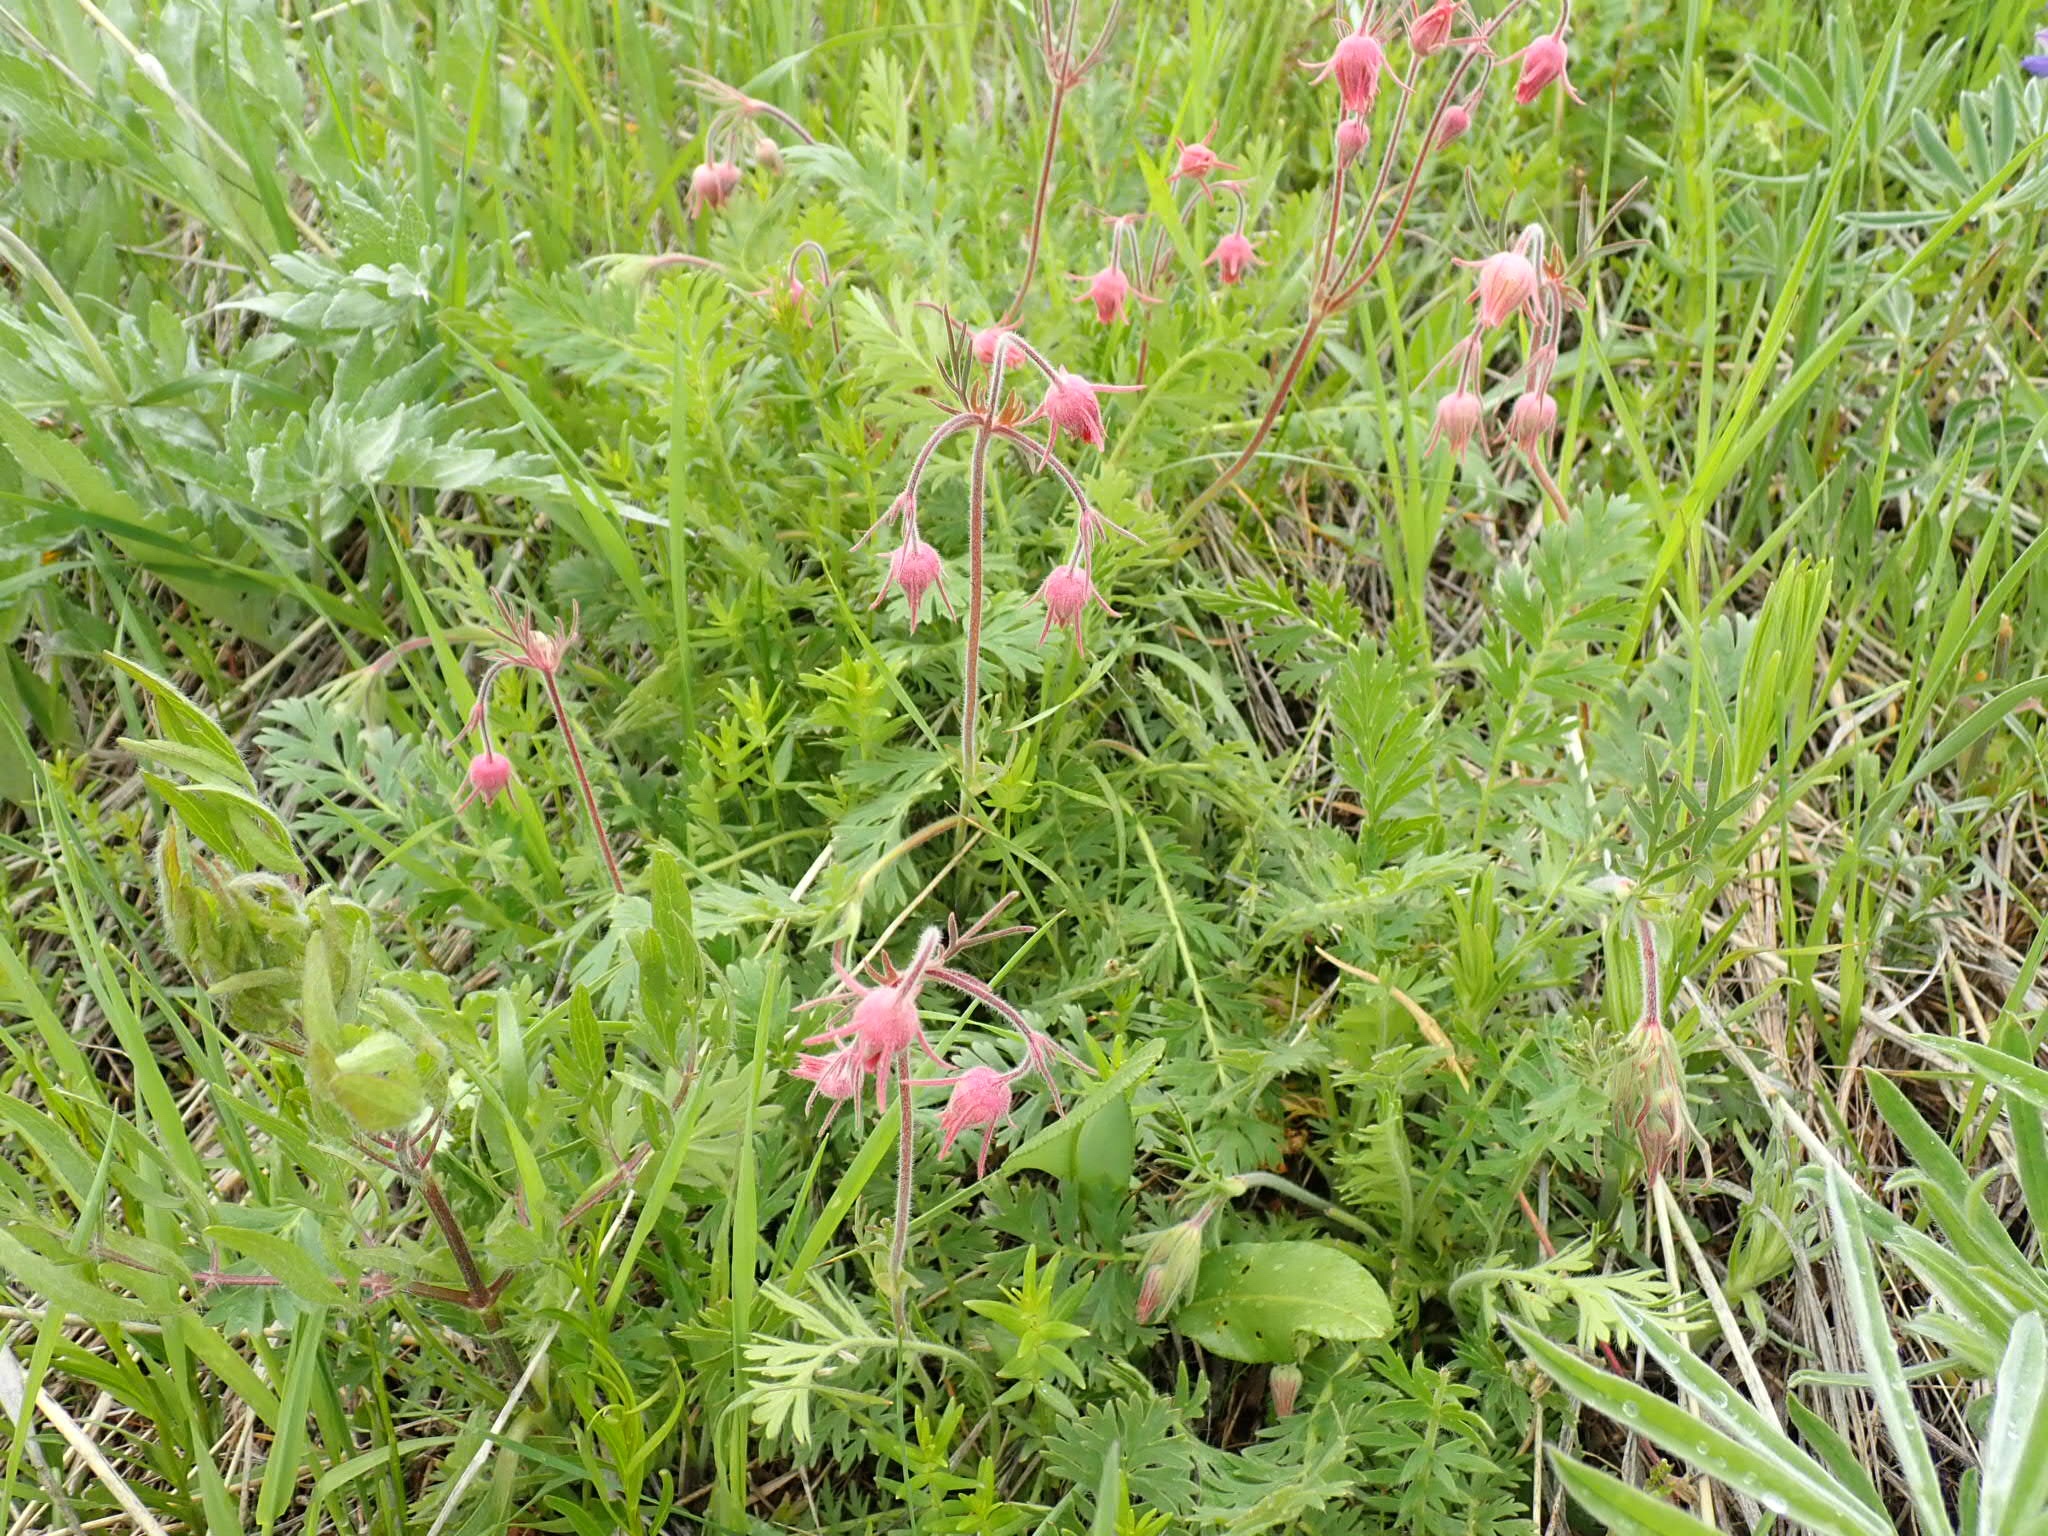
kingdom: Plantae
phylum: Tracheophyta
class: Magnoliopsida
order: Rosales
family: Rosaceae
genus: Geum
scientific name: Geum triflorum
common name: Old man's whiskers
